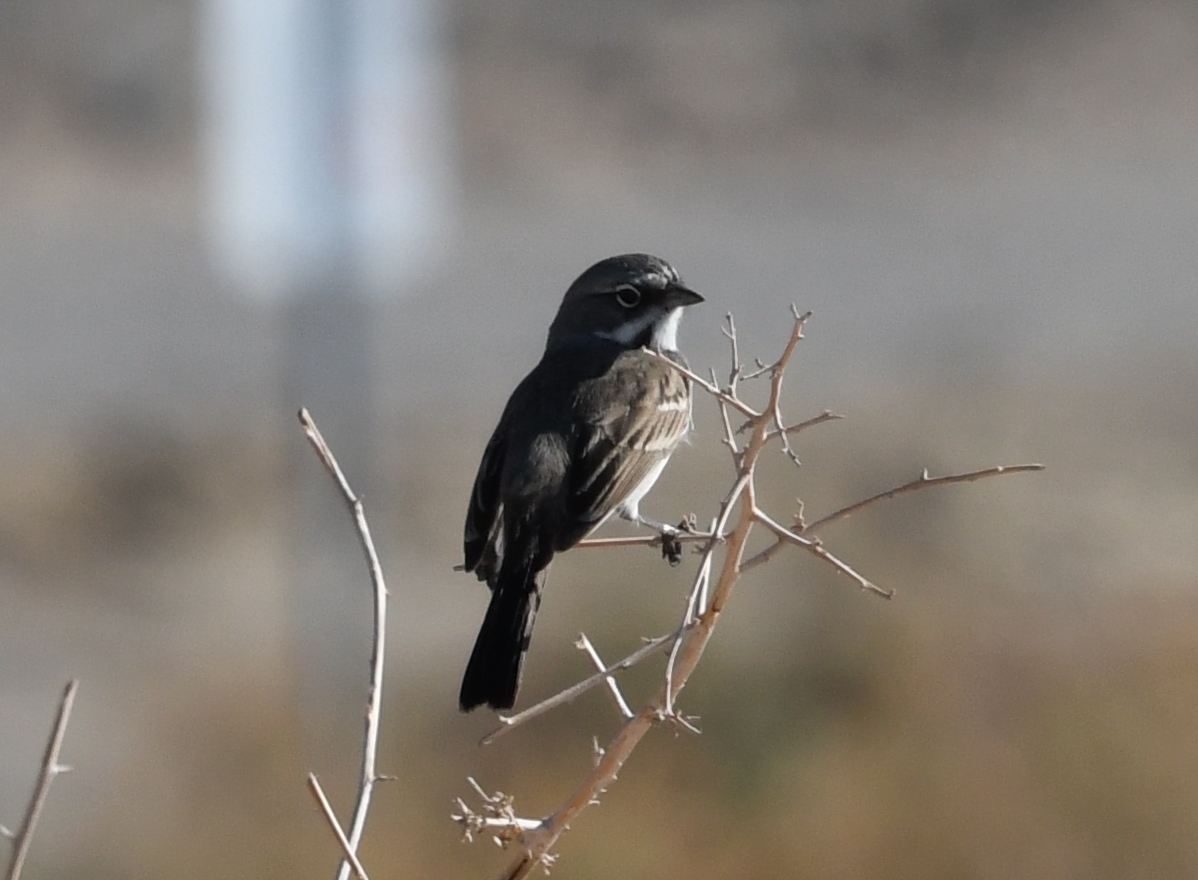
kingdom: Animalia
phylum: Chordata
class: Aves
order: Passeriformes
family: Passerellidae
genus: Artemisiospiza
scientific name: Artemisiospiza belli
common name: Bell's sparrow
